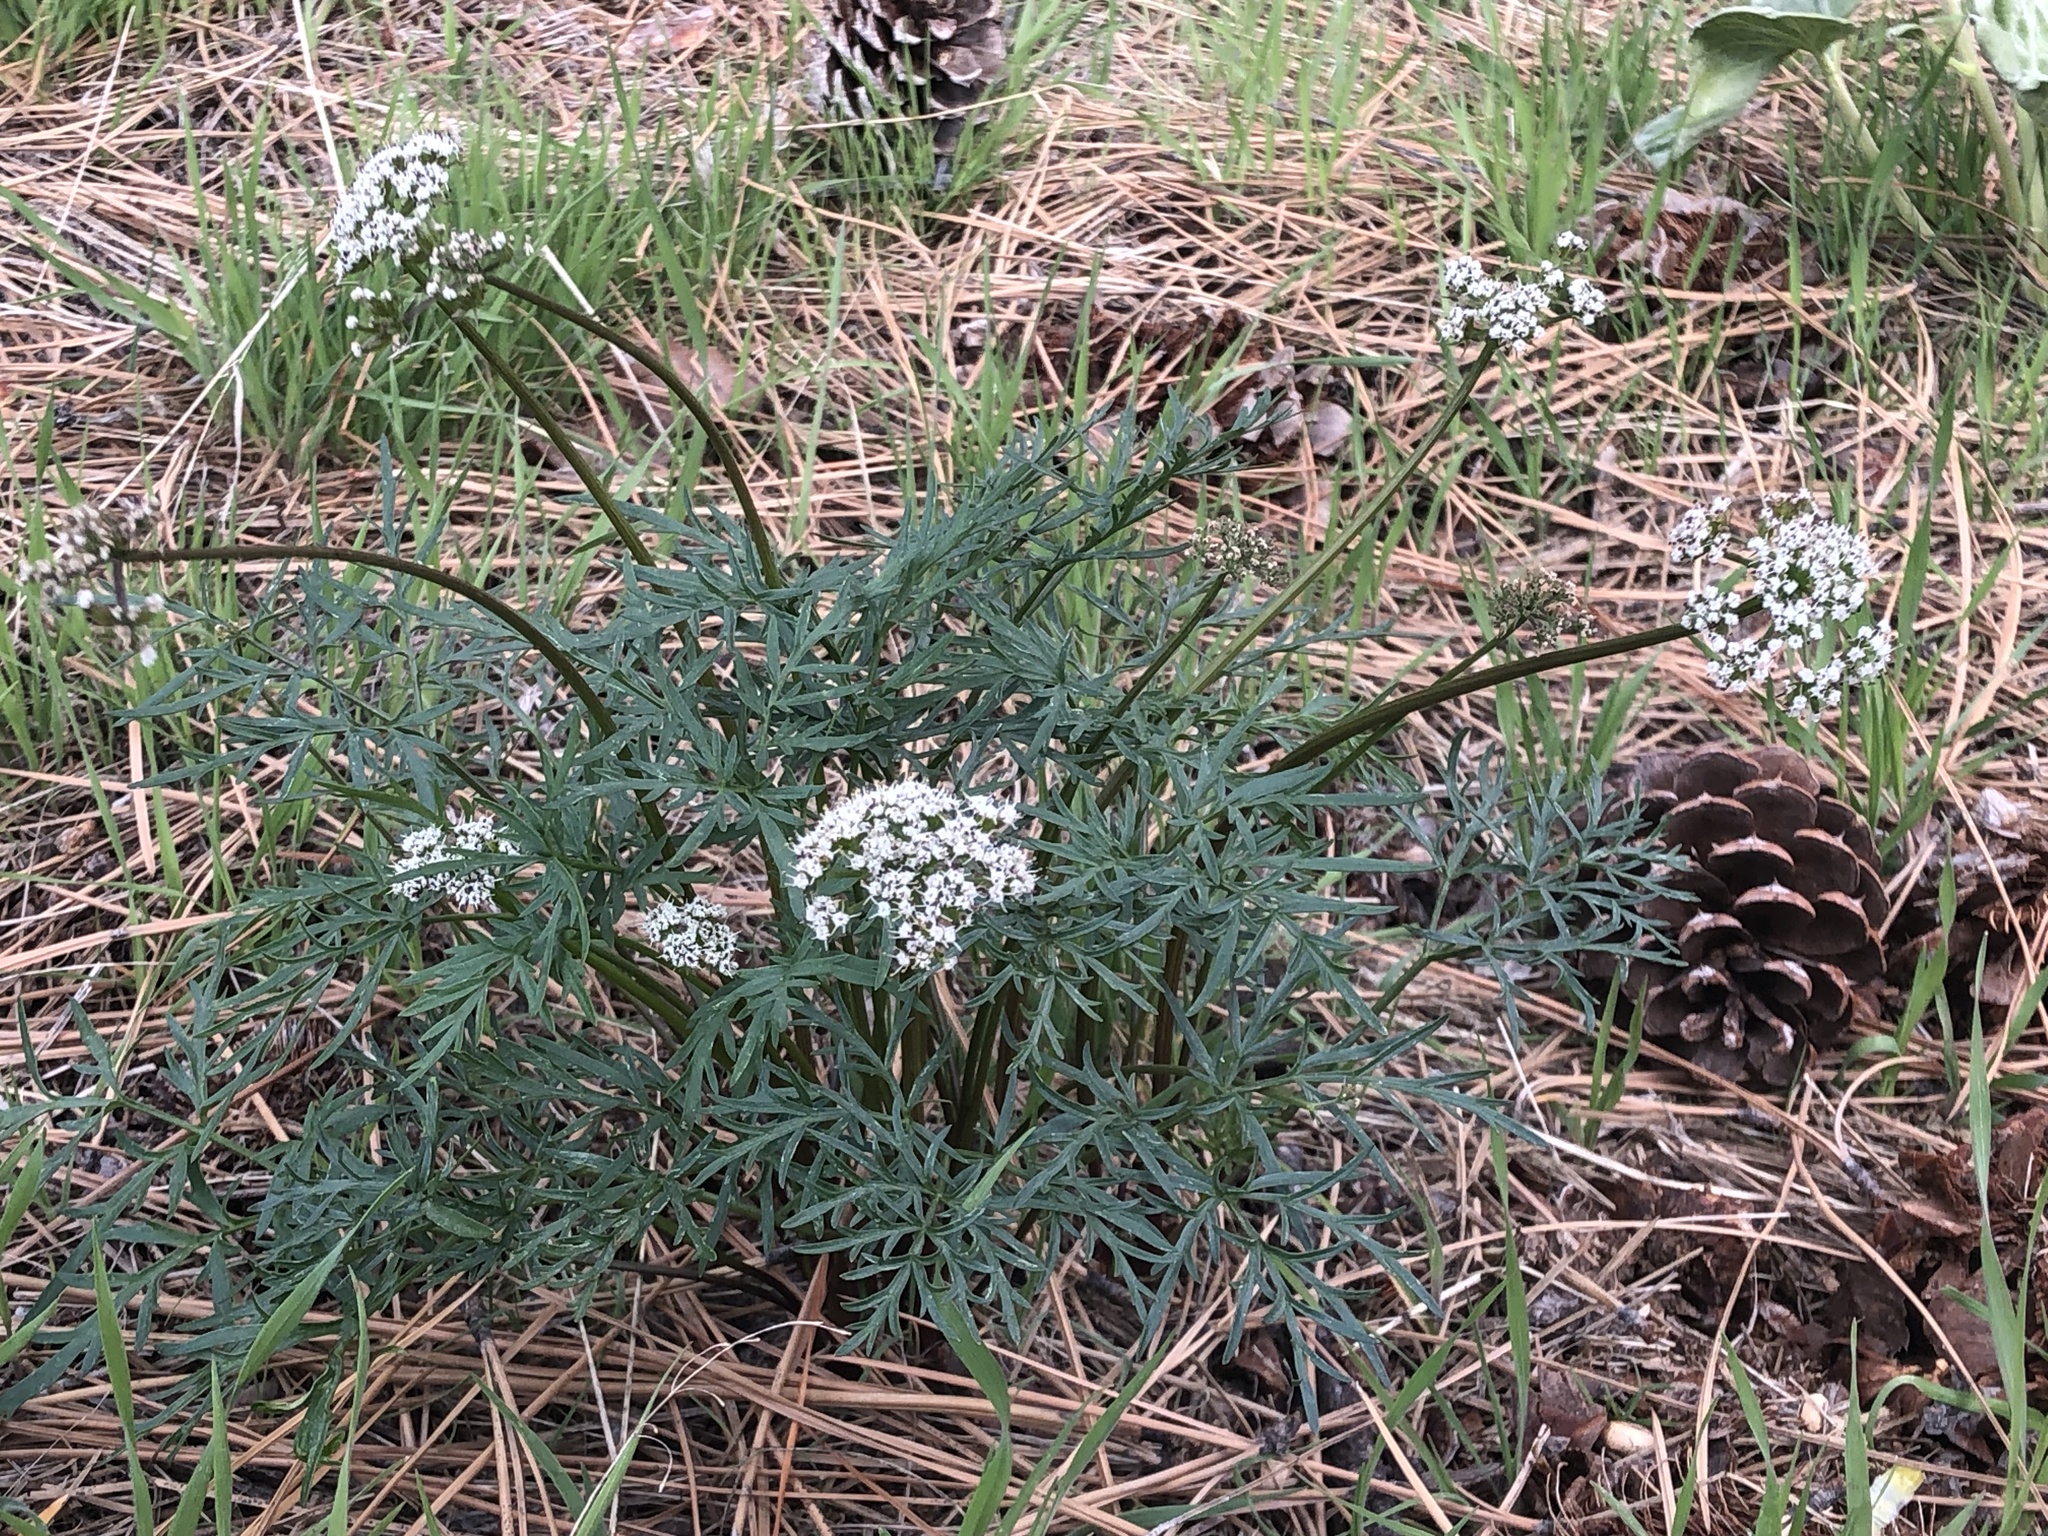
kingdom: Plantae
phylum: Tracheophyta
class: Magnoliopsida
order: Apiales
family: Apiaceae
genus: Lomatium
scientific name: Lomatium geyeri
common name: Geyer's biscuitroot
